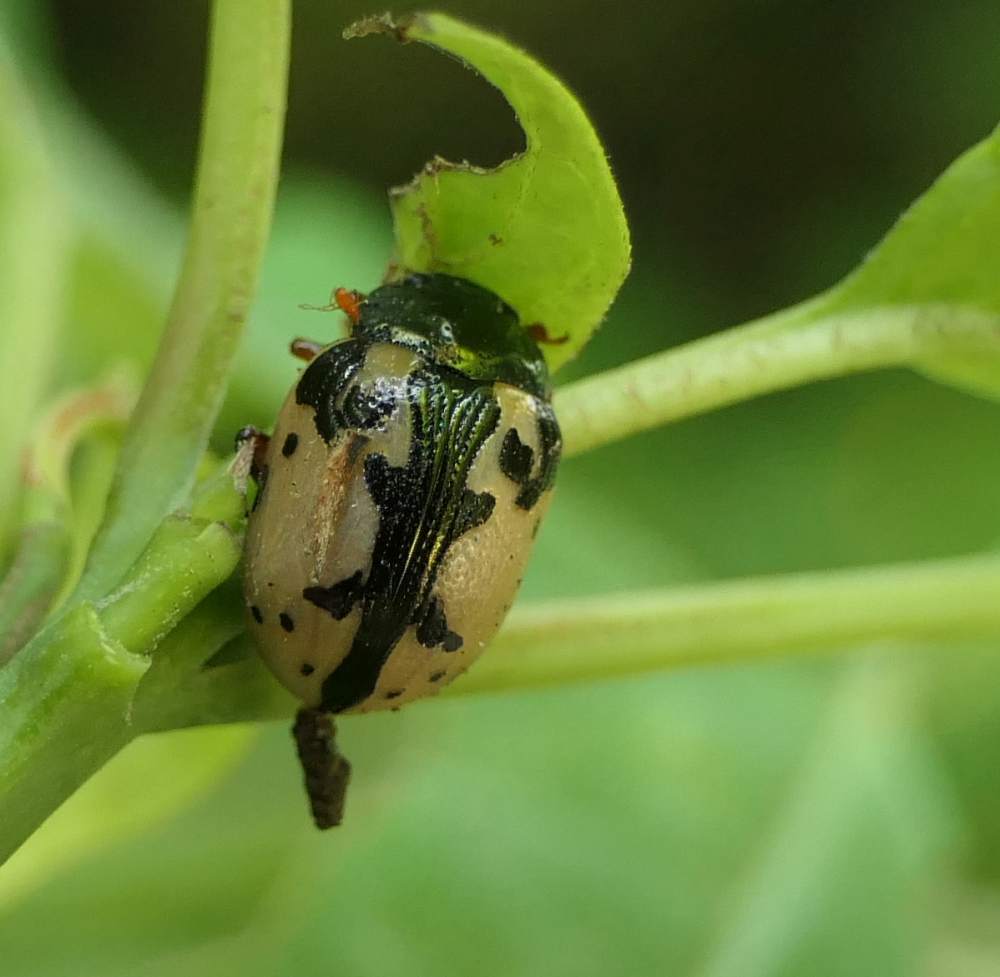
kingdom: Animalia
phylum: Arthropoda
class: Insecta
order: Coleoptera
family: Chrysomelidae
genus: Calligrapha
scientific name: Calligrapha rowena
